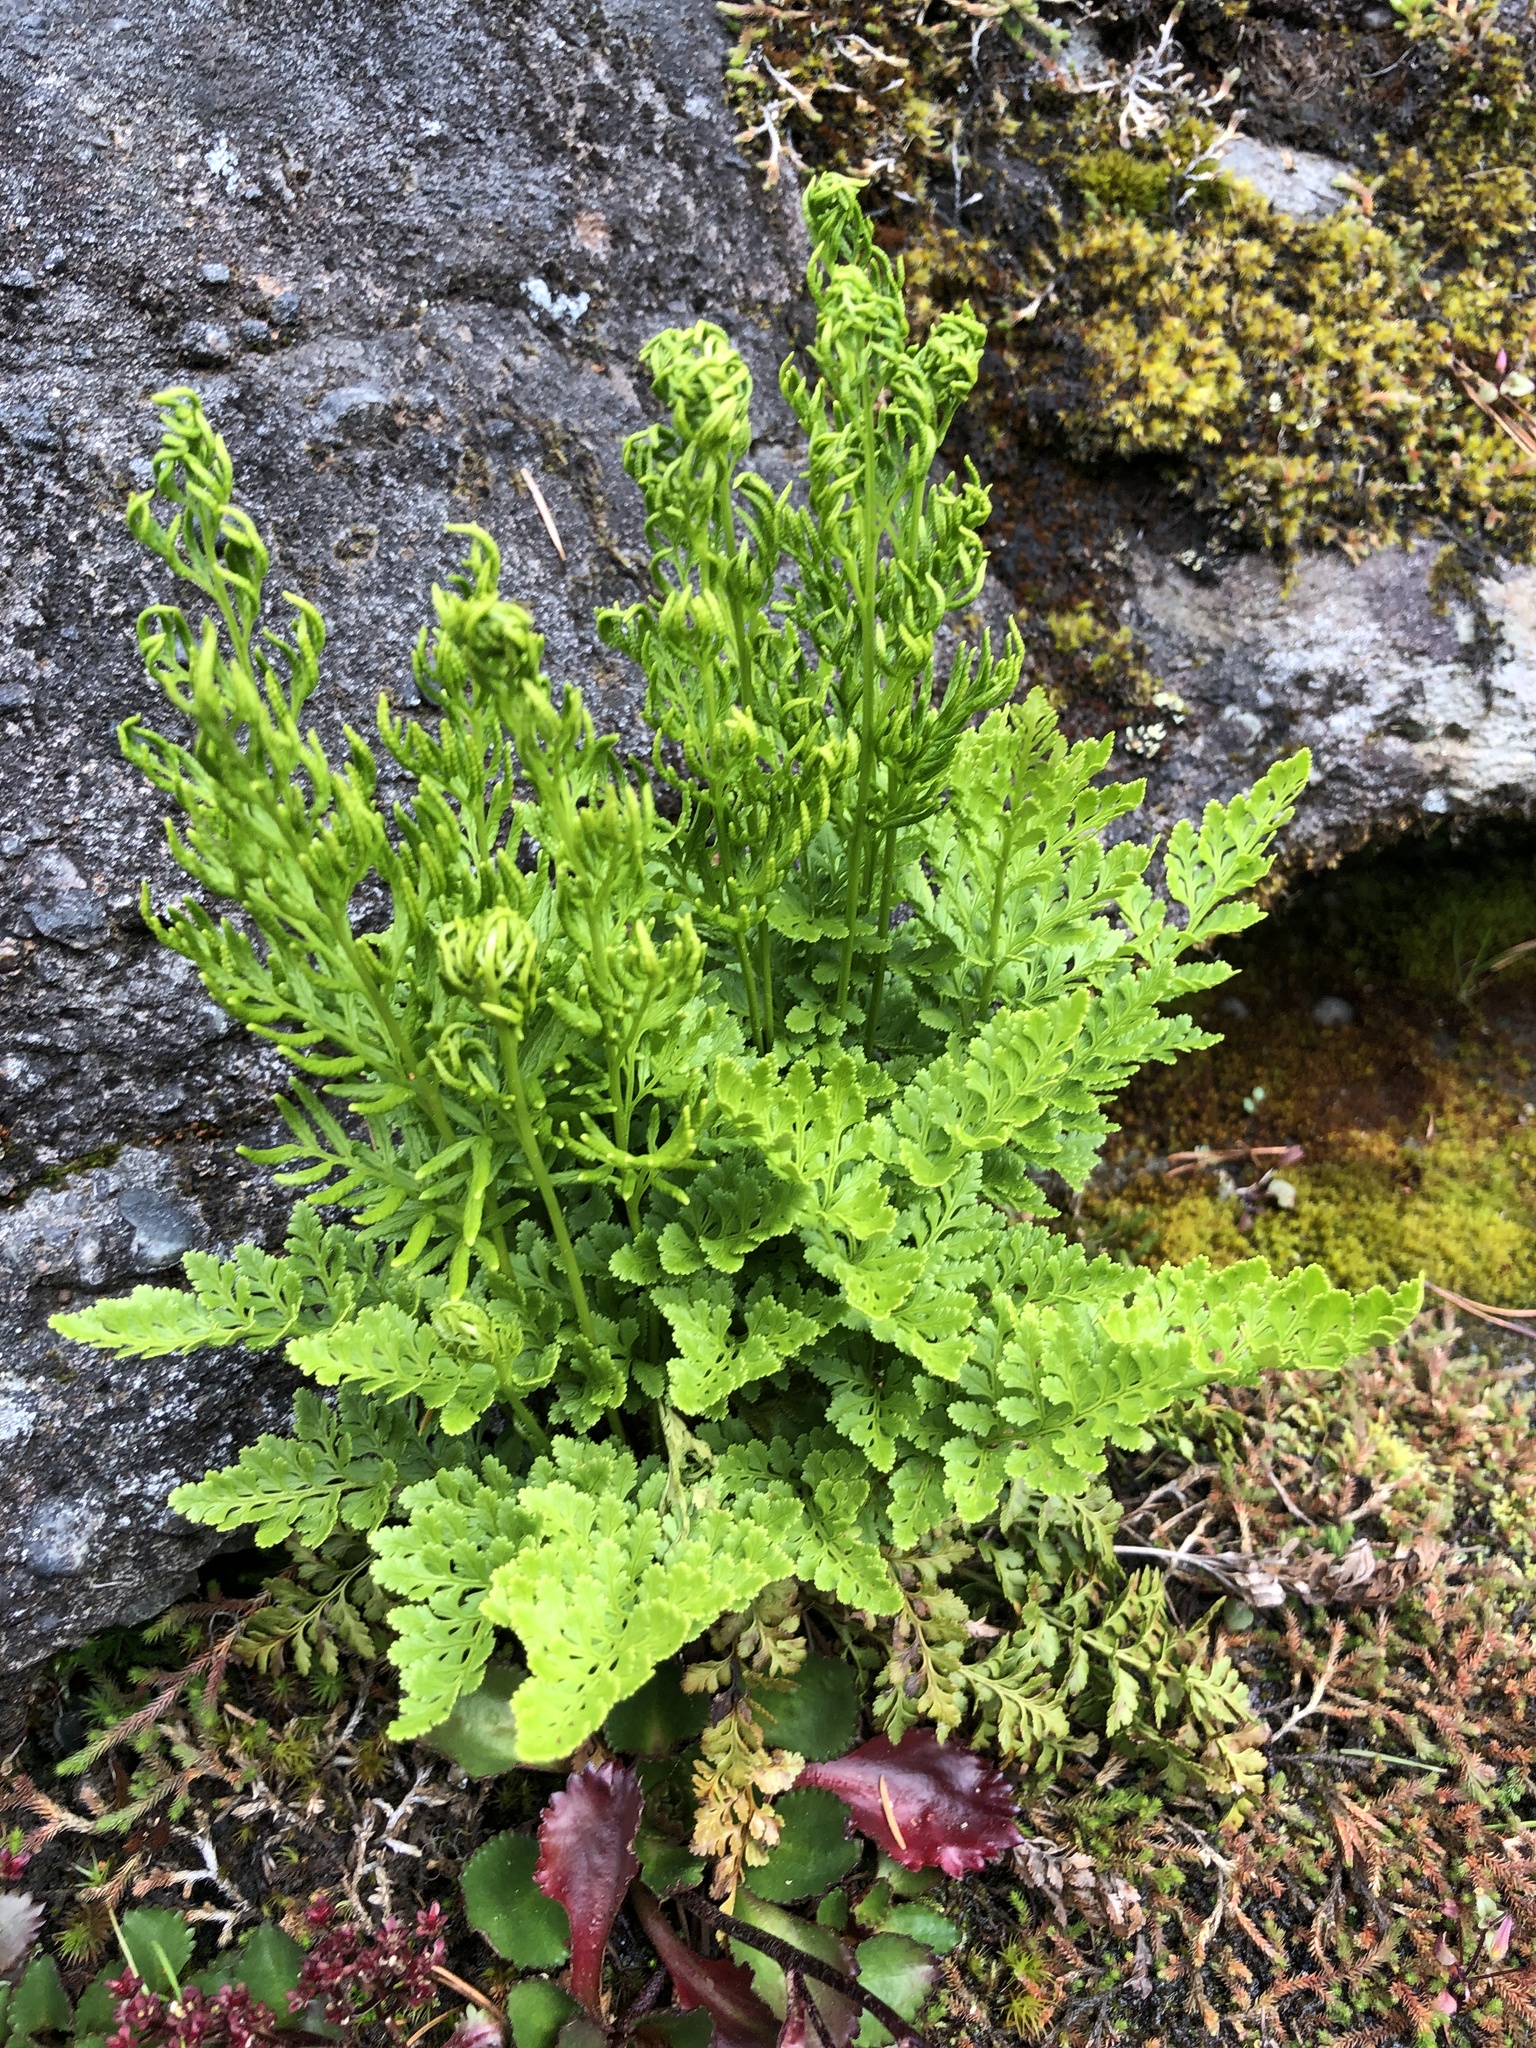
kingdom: Plantae
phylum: Tracheophyta
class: Polypodiopsida
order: Polypodiales
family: Pteridaceae
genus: Cryptogramma
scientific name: Cryptogramma acrostichoides
